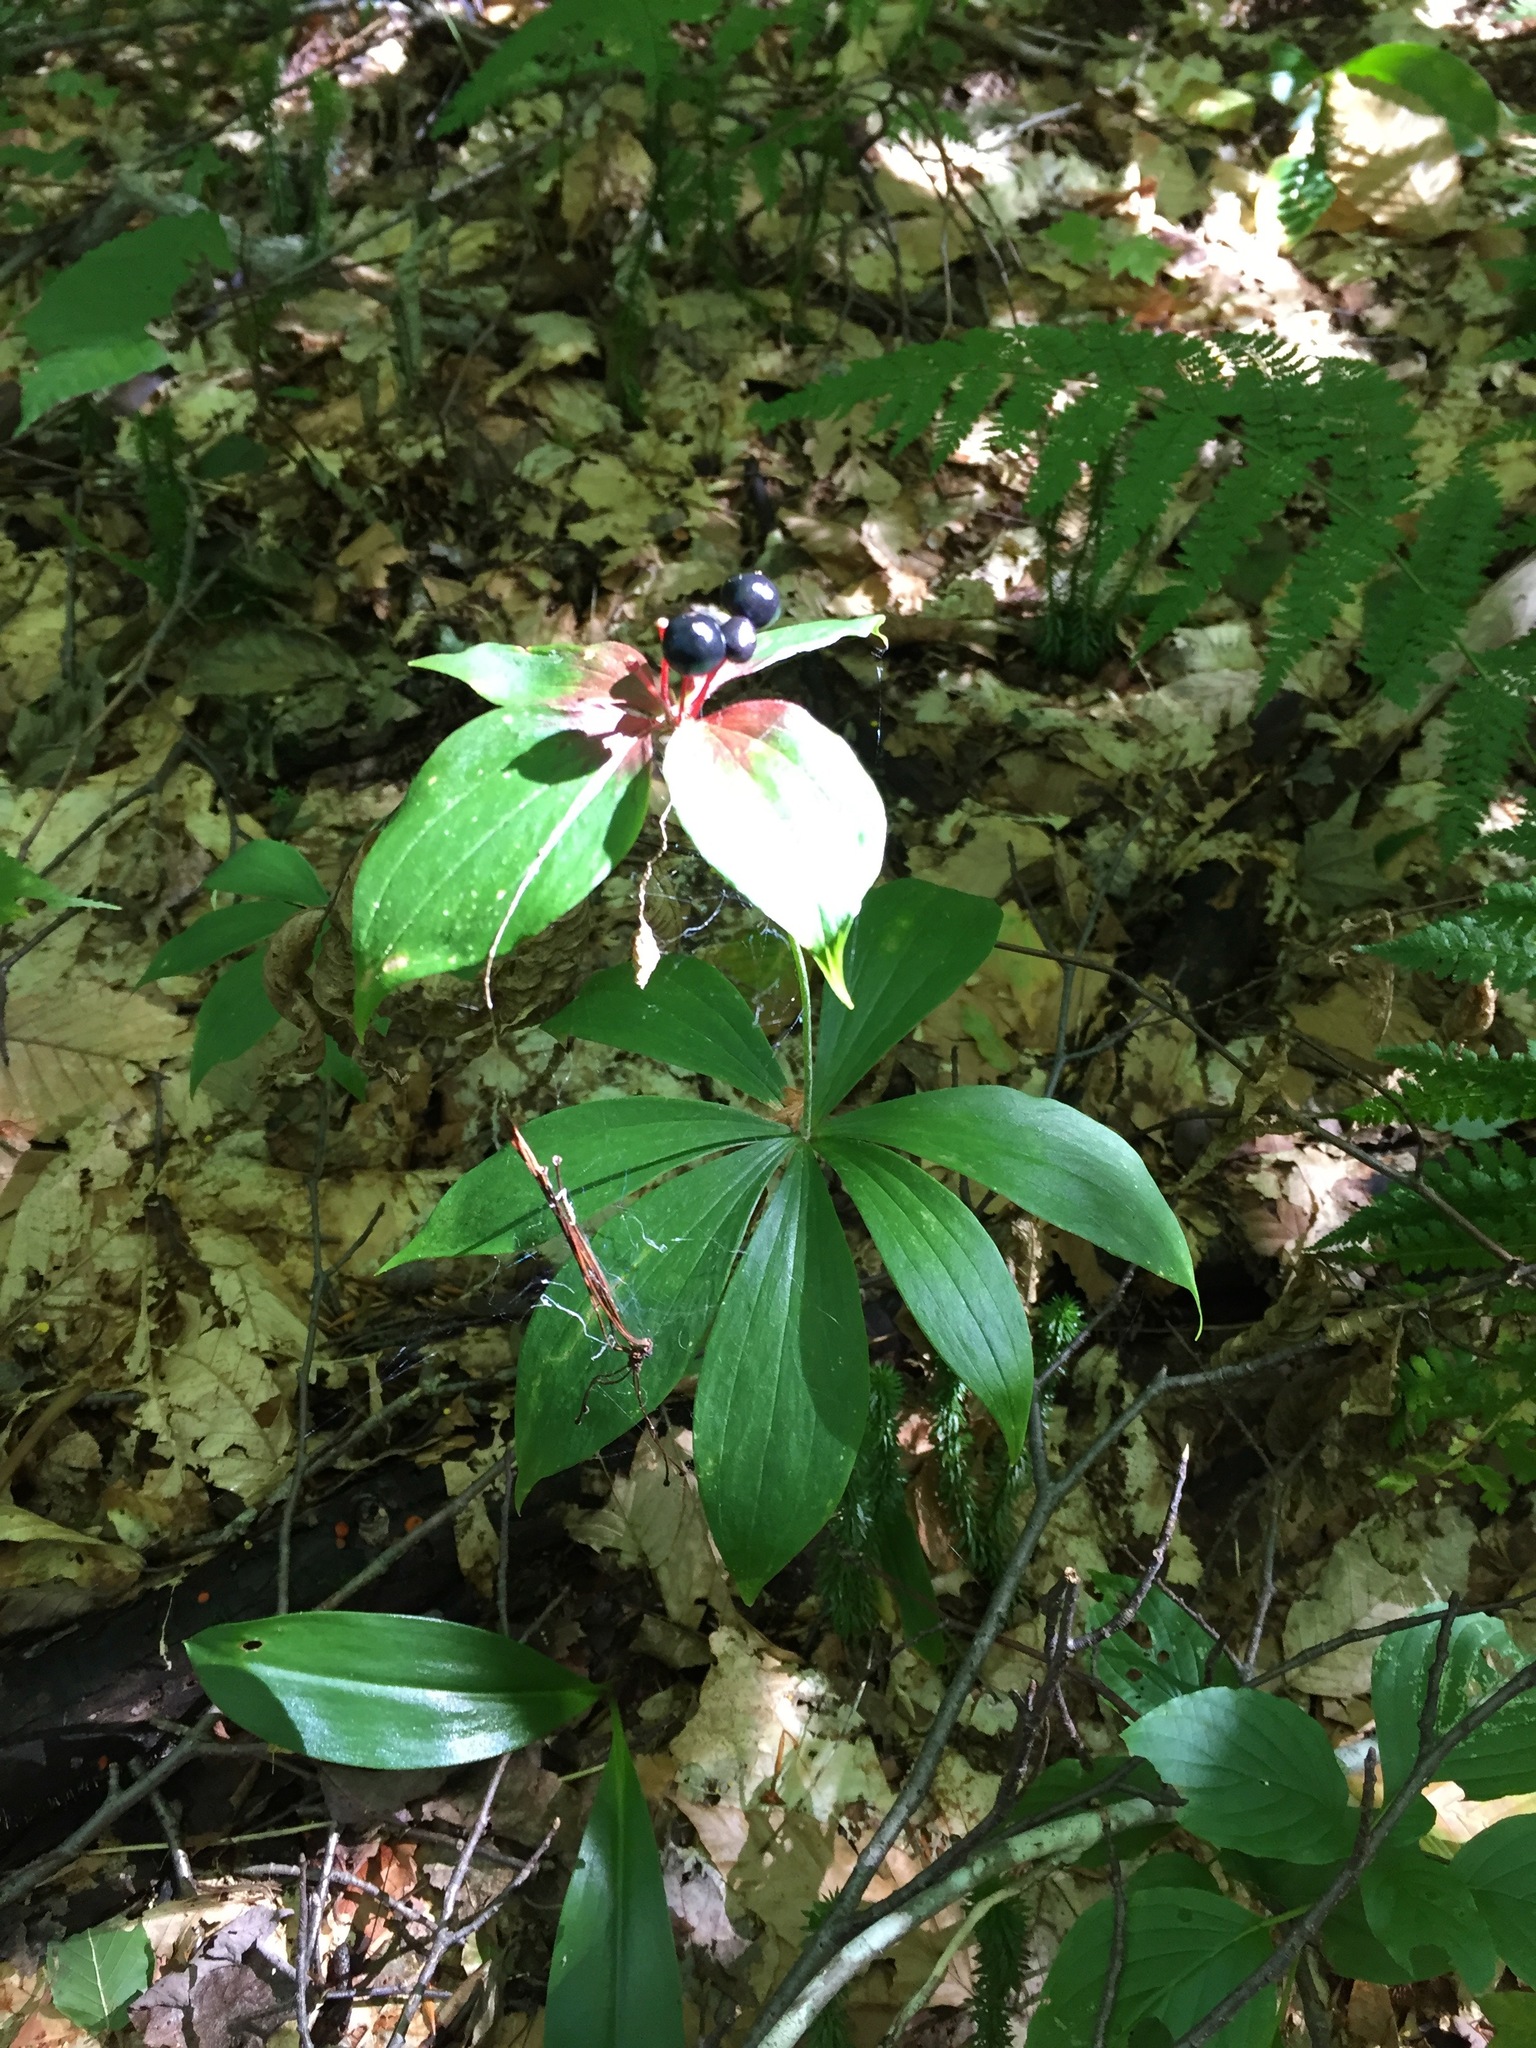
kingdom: Plantae
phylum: Tracheophyta
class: Liliopsida
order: Liliales
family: Liliaceae
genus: Medeola
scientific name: Medeola virginiana
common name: Indian cucumber-root
